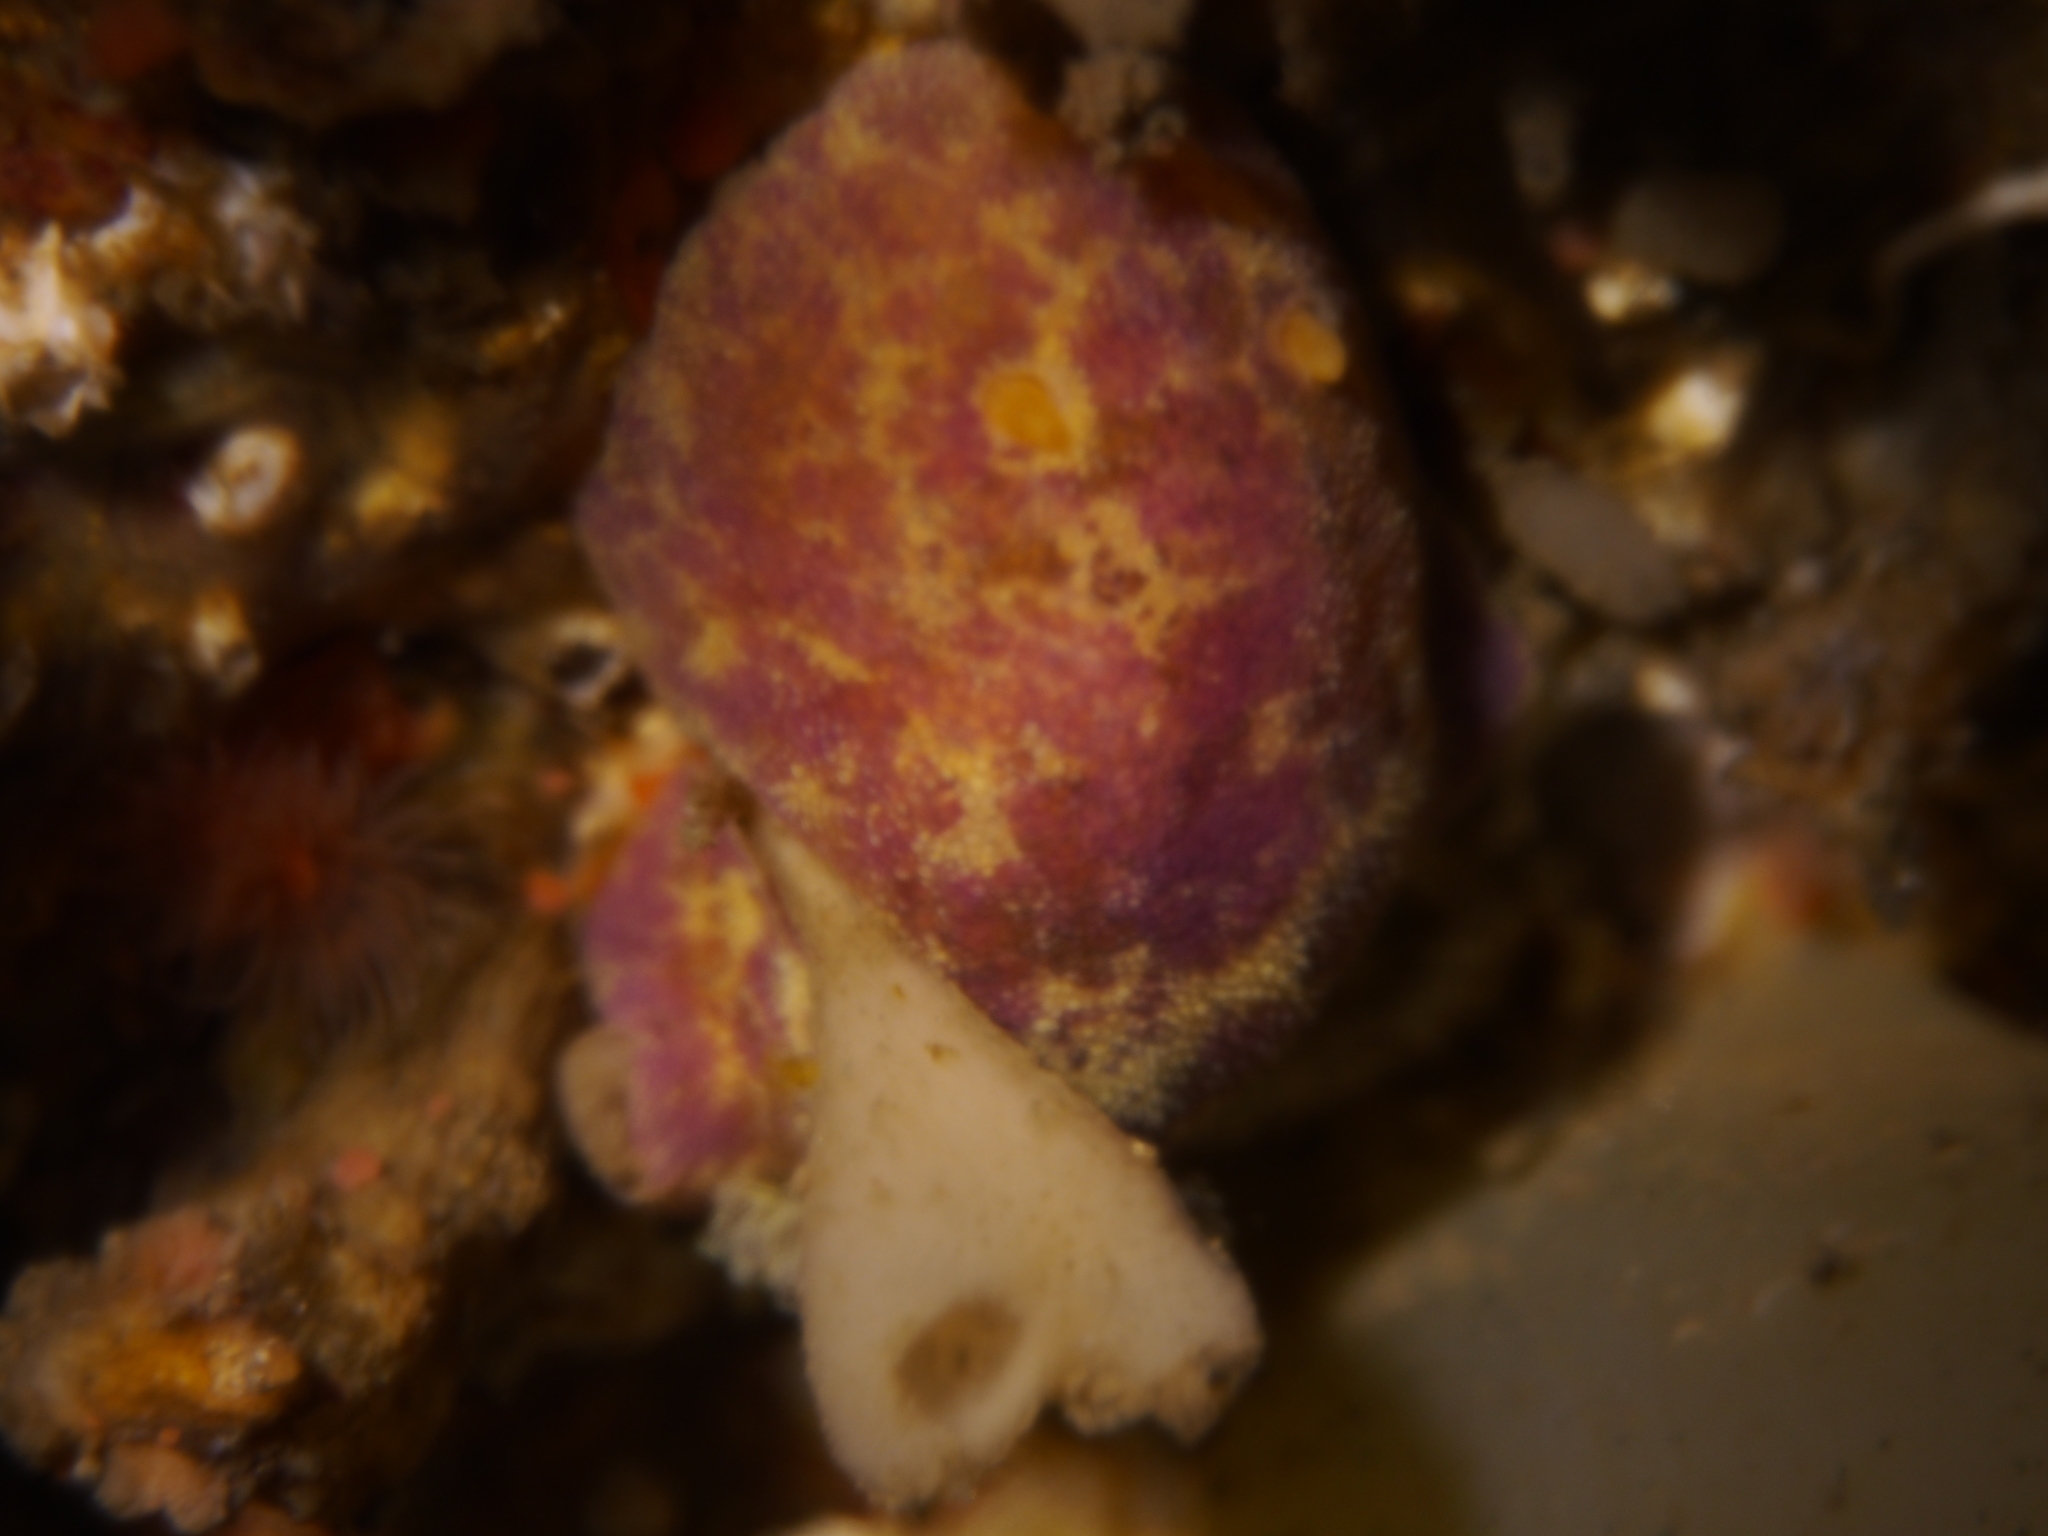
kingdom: Animalia
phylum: Mollusca
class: Gastropoda
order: Nudibranchia
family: Dorididae
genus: Doris
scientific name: Doris pseudoargus
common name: Sea lemon
